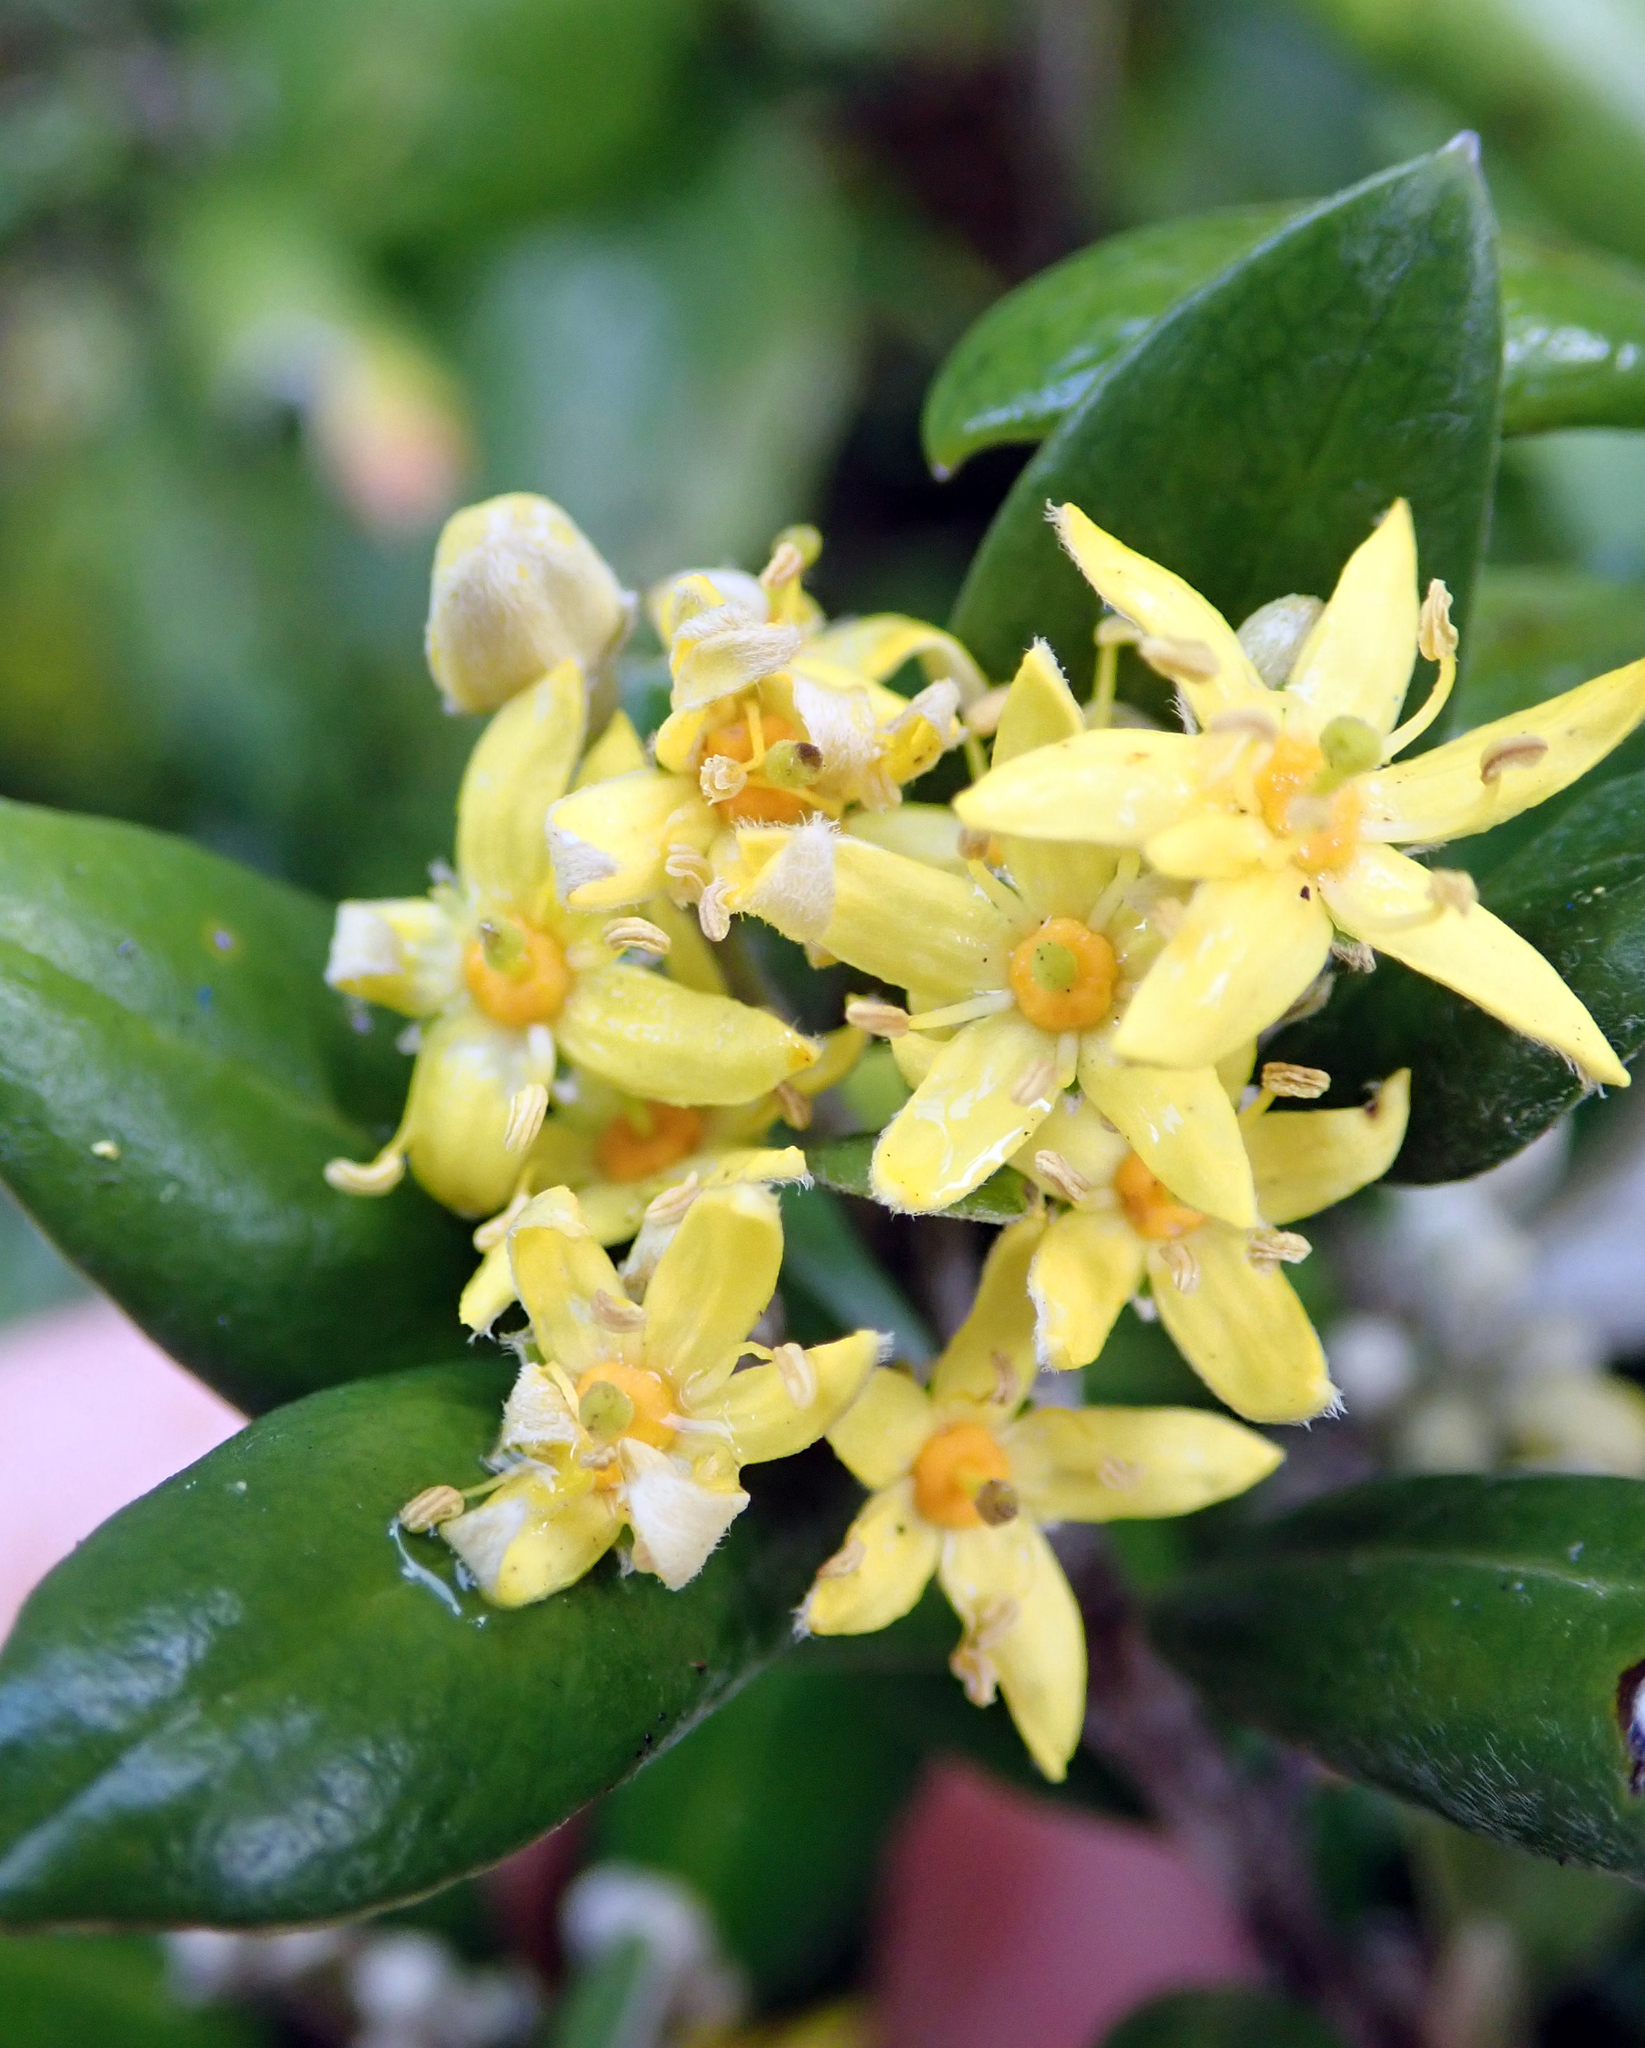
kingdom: Plantae
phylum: Tracheophyta
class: Magnoliopsida
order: Asterales
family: Argophyllaceae
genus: Corokia
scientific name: Corokia macrocarpa
